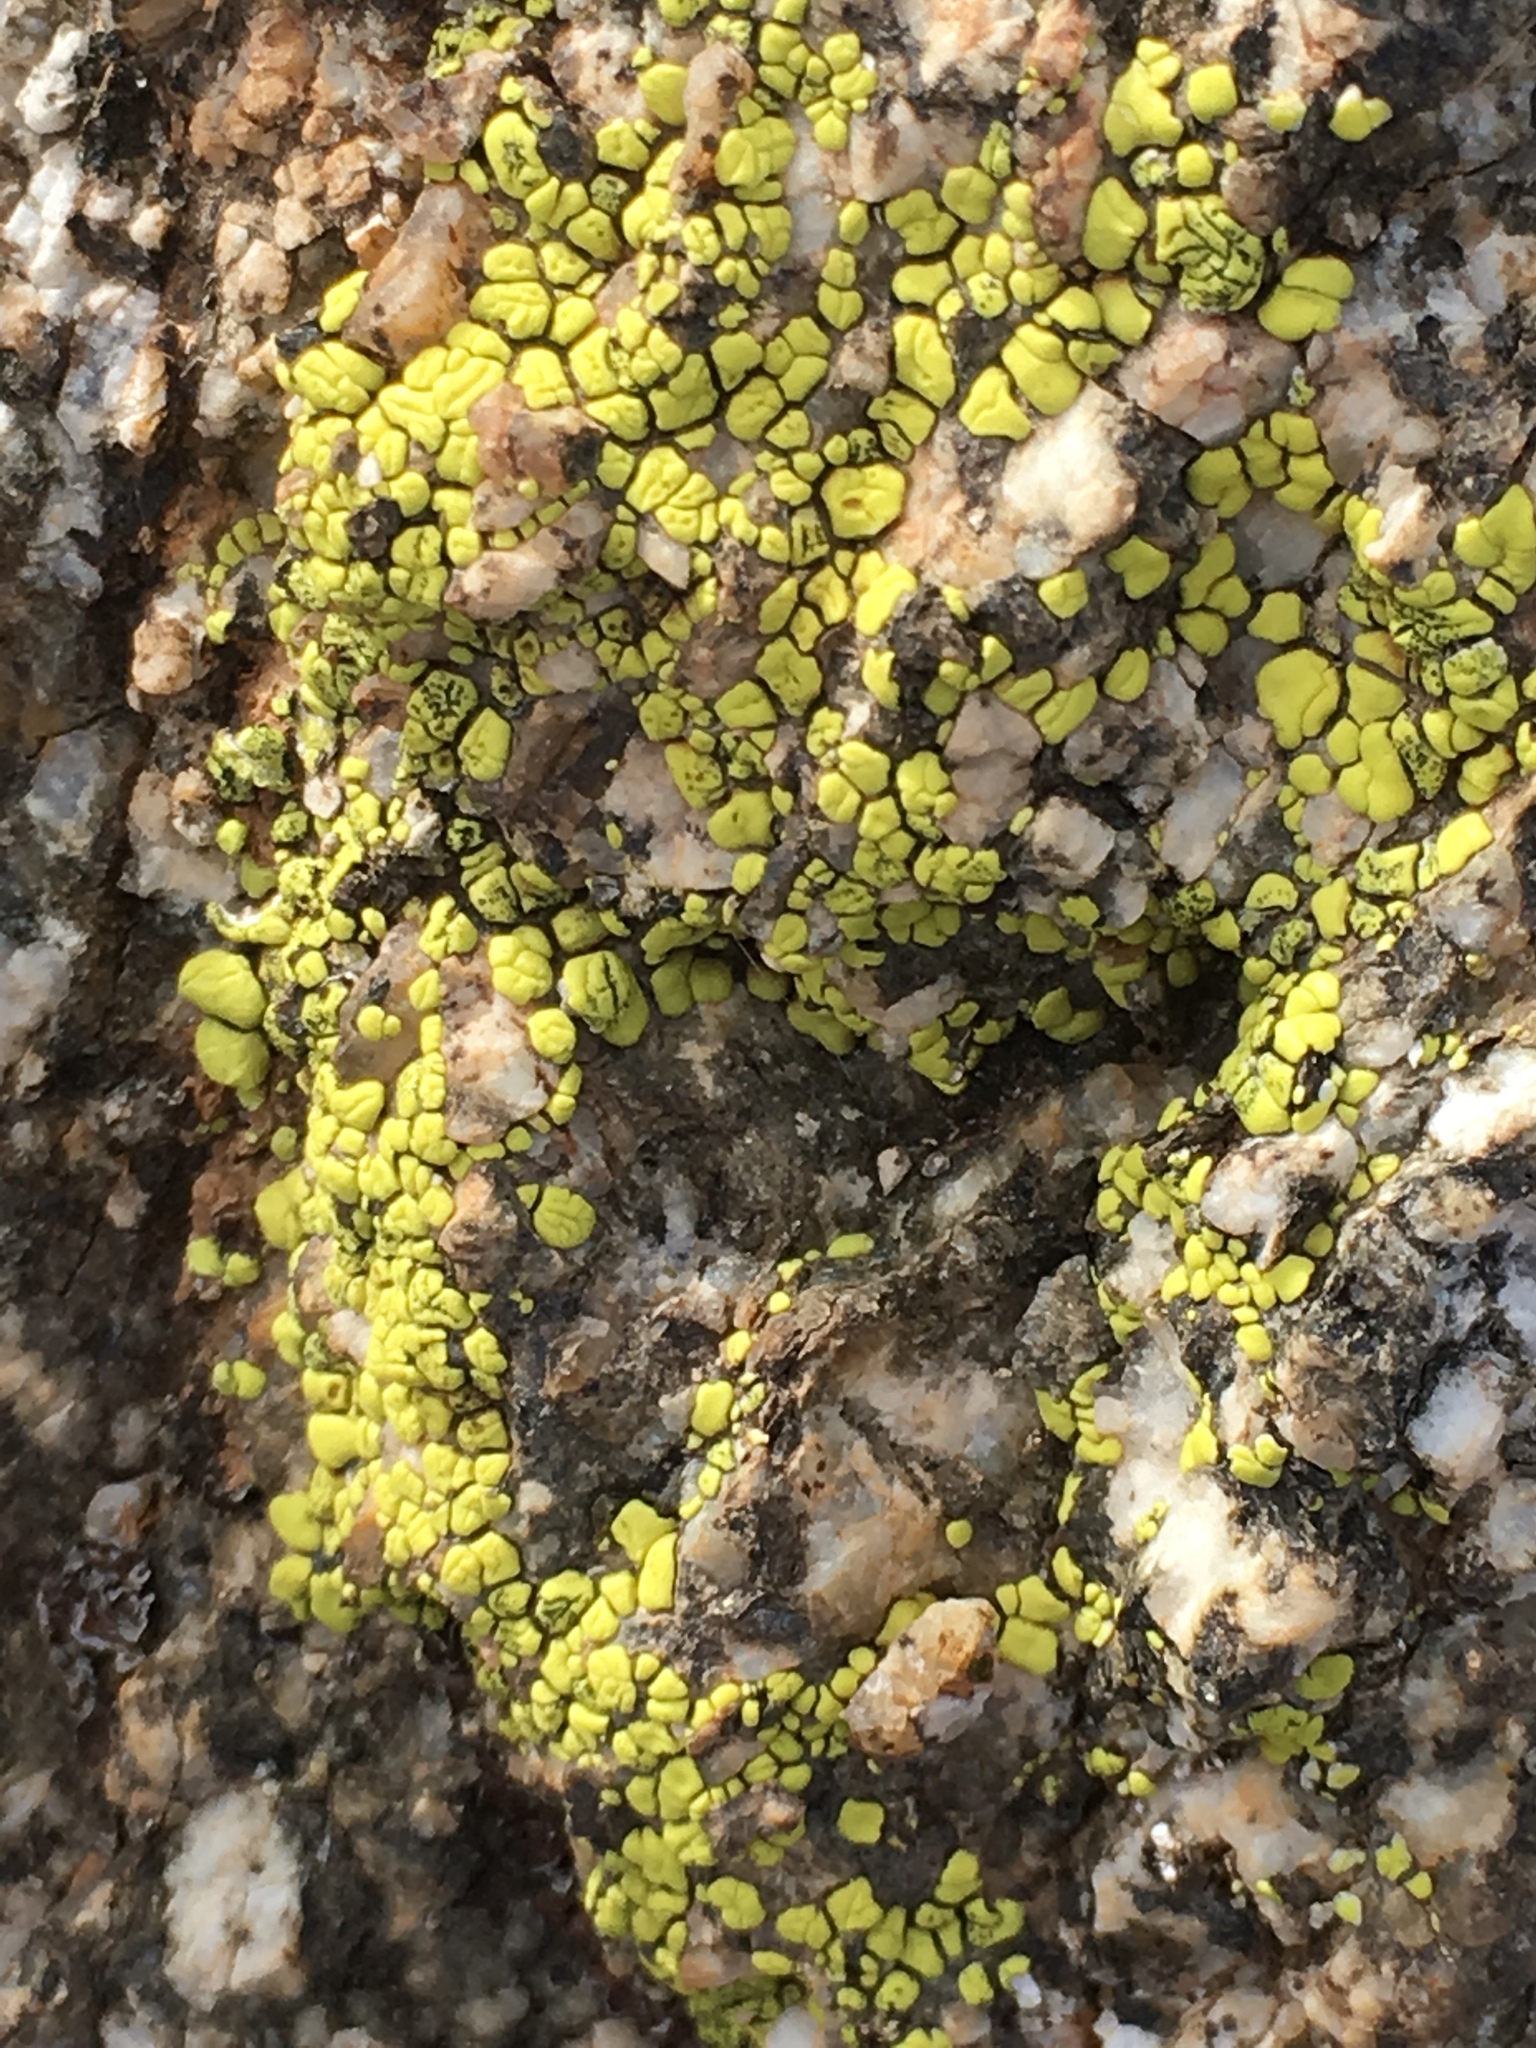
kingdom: Fungi
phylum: Ascomycota
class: Lecanoromycetes
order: Acarosporales
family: Acarosporaceae
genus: Acarospora
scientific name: Acarospora socialis
